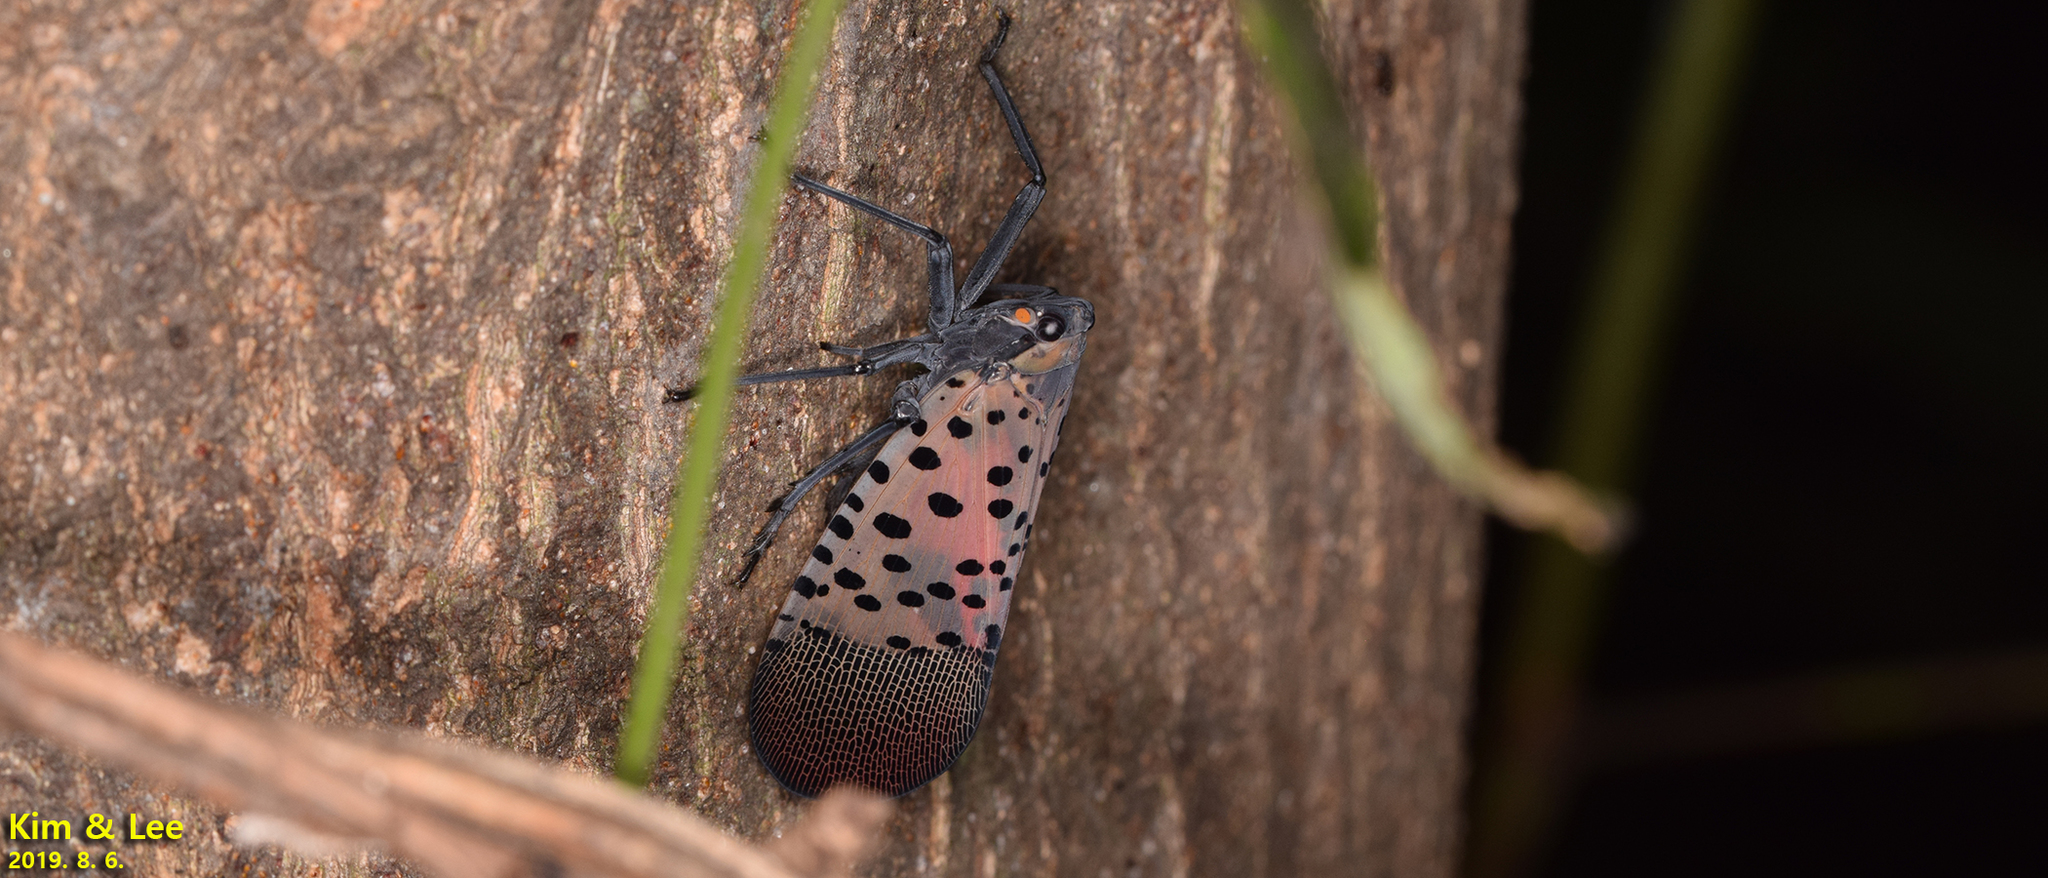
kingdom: Animalia
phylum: Arthropoda
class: Insecta
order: Hemiptera
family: Fulgoridae
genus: Lycorma
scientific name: Lycorma delicatula
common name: Spotted lanternfly
